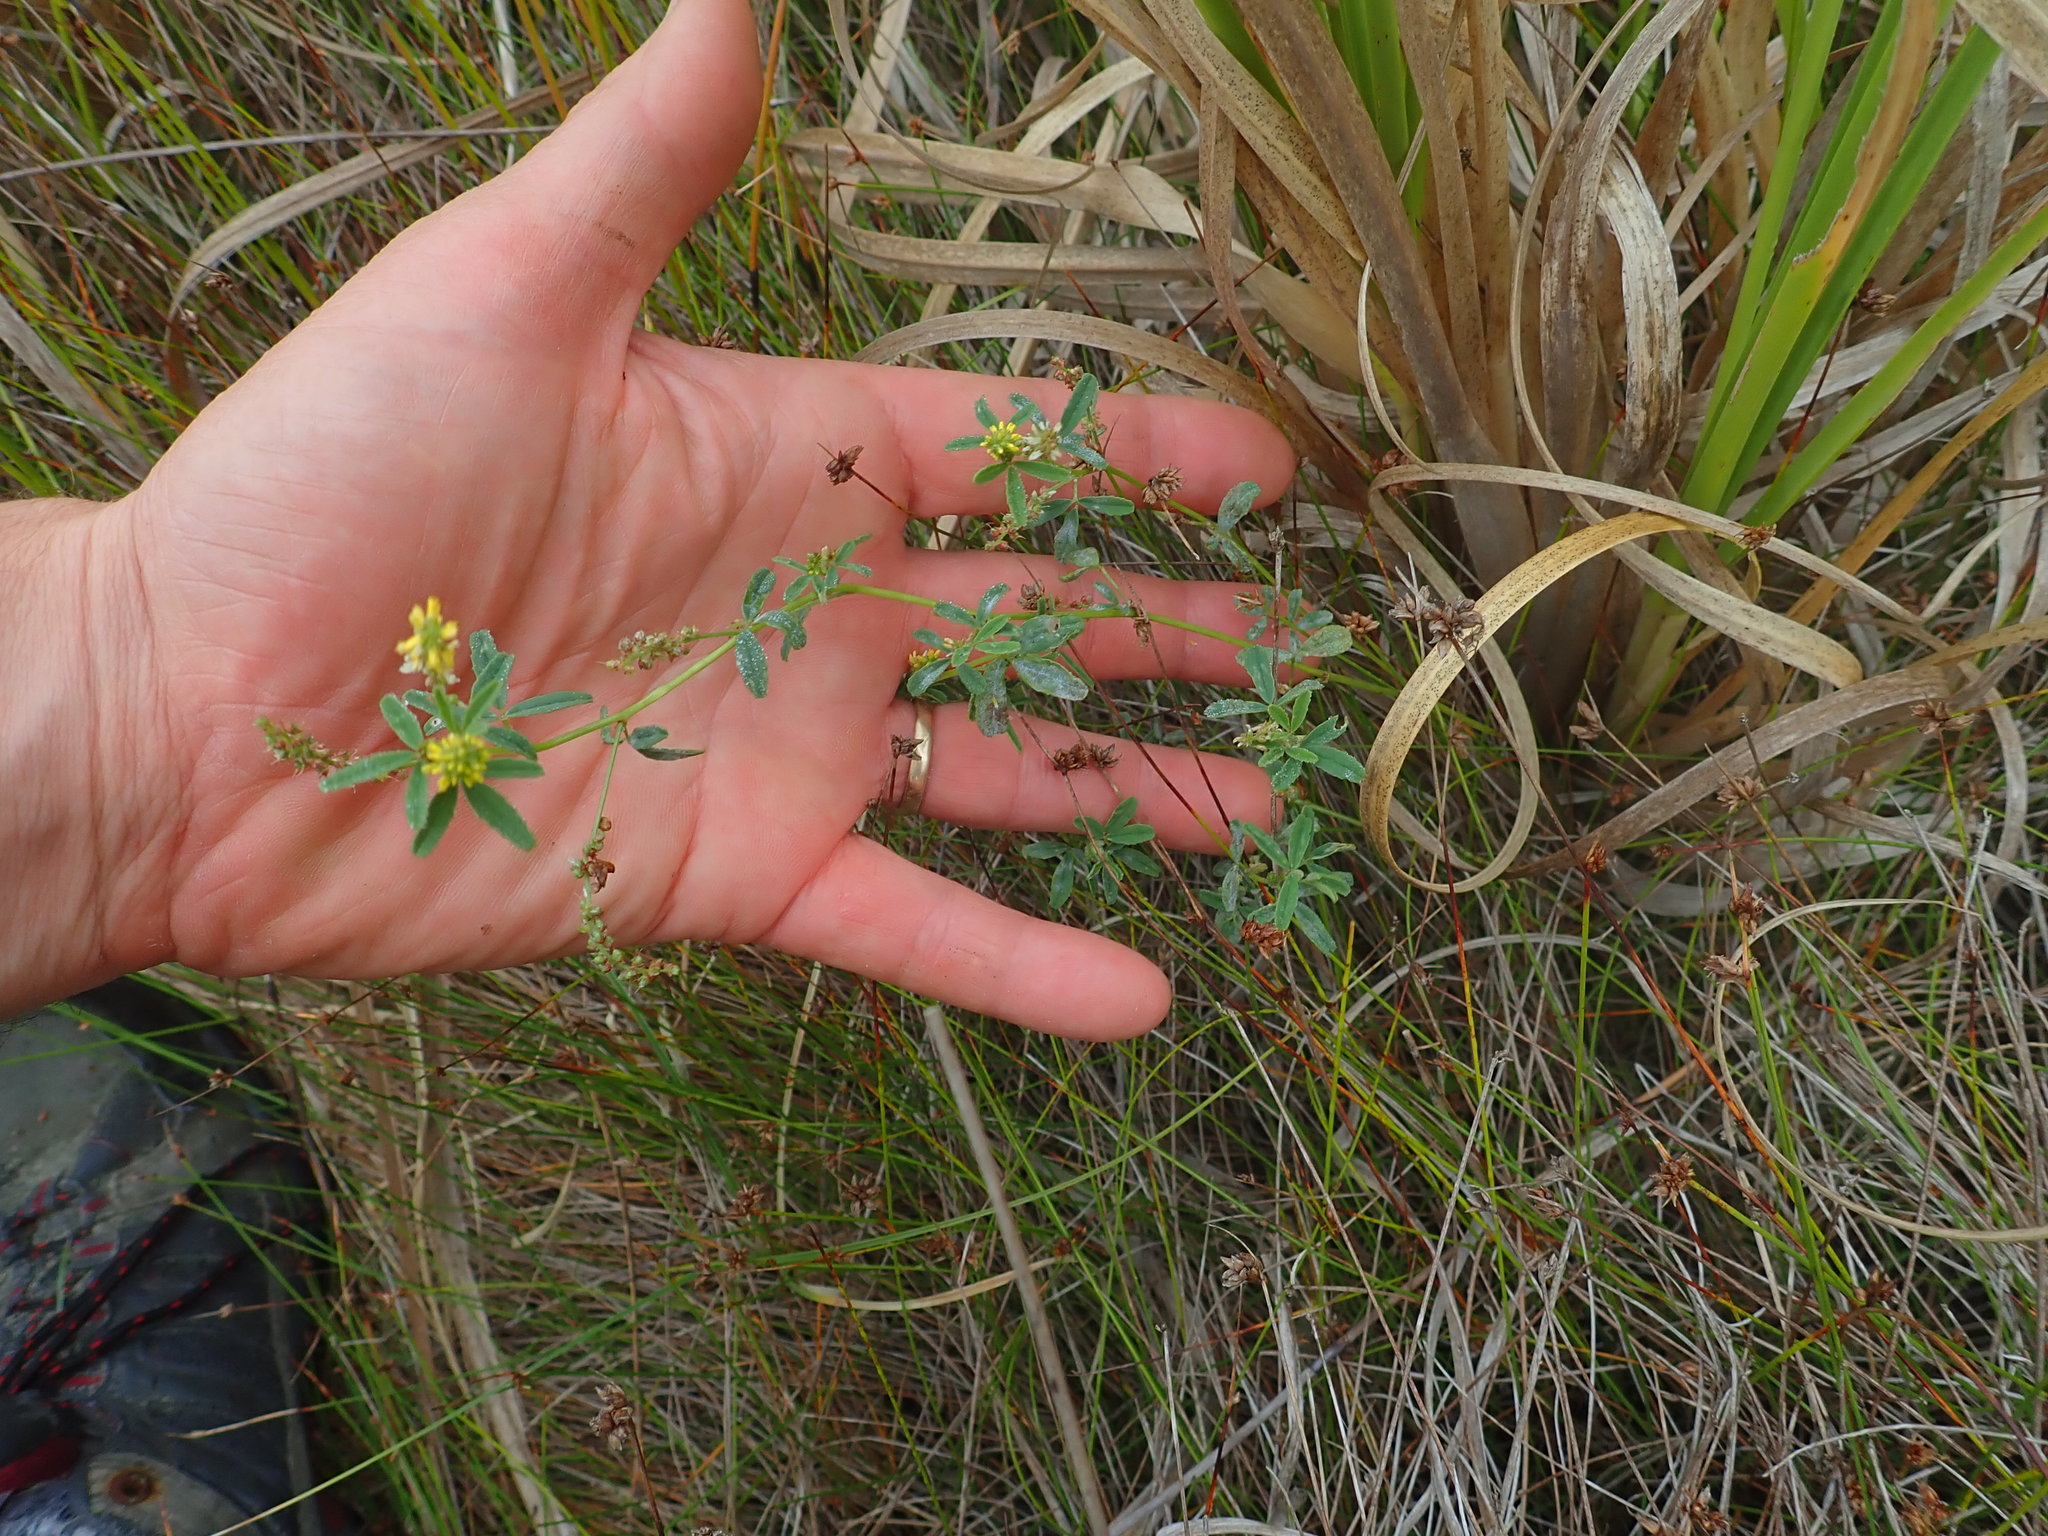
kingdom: Plantae
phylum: Tracheophyta
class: Magnoliopsida
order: Fabales
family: Fabaceae
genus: Melilotus
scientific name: Melilotus indicus
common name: Small melilot
